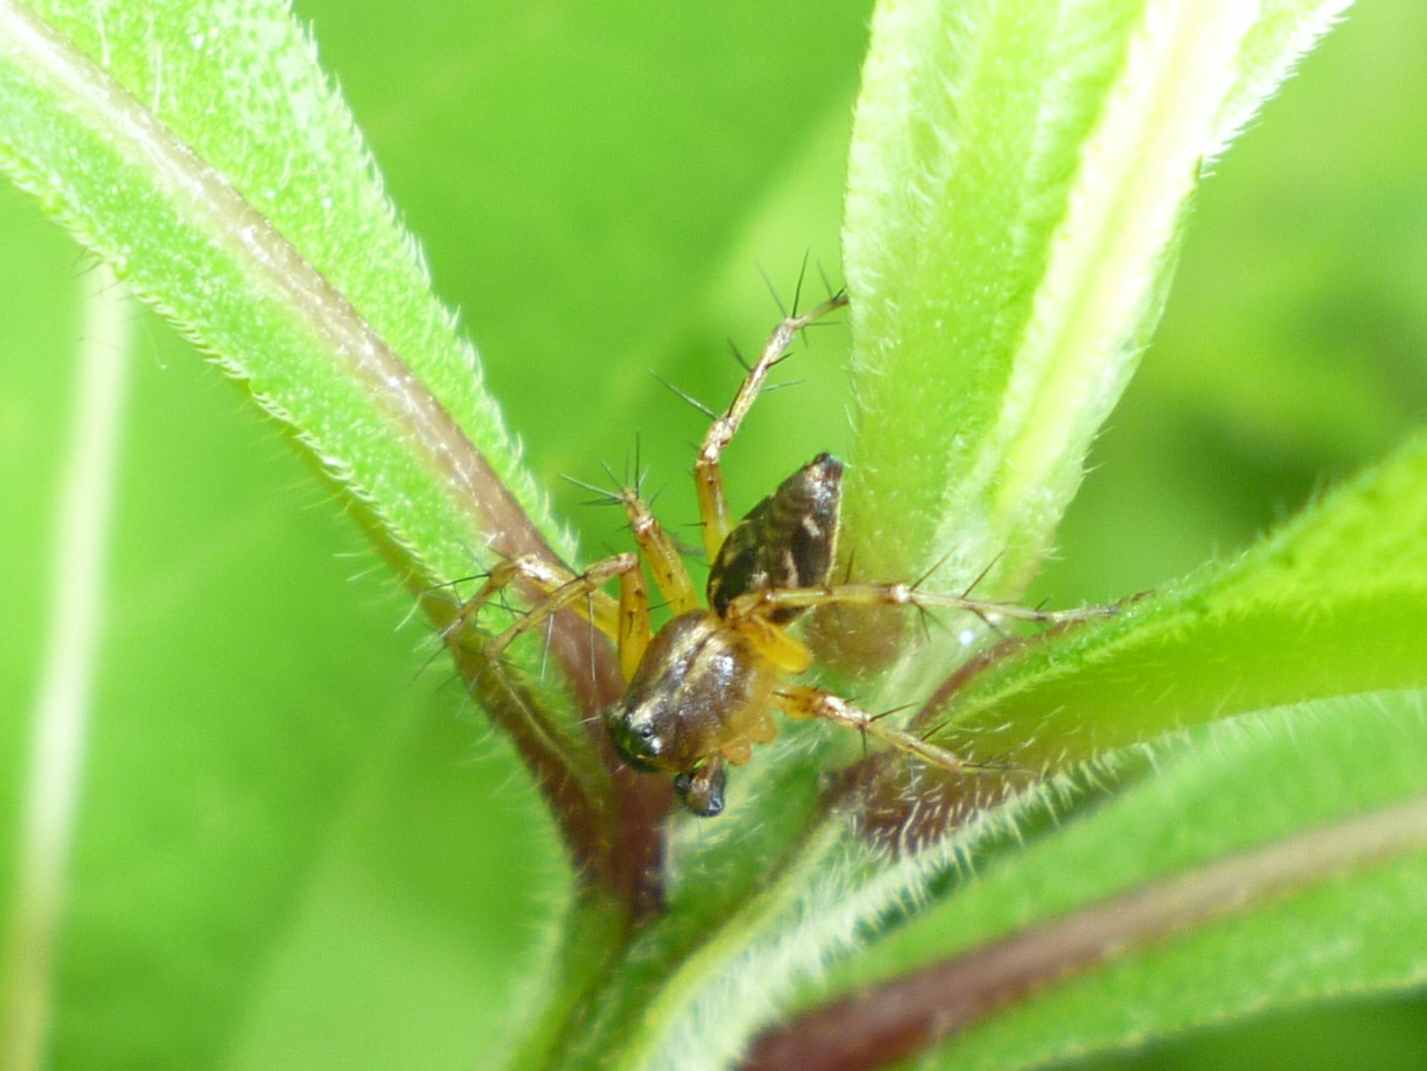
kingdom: Animalia
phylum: Arthropoda
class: Arachnida
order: Araneae
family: Oxyopidae
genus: Oxyopes
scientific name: Oxyopes scalaris
